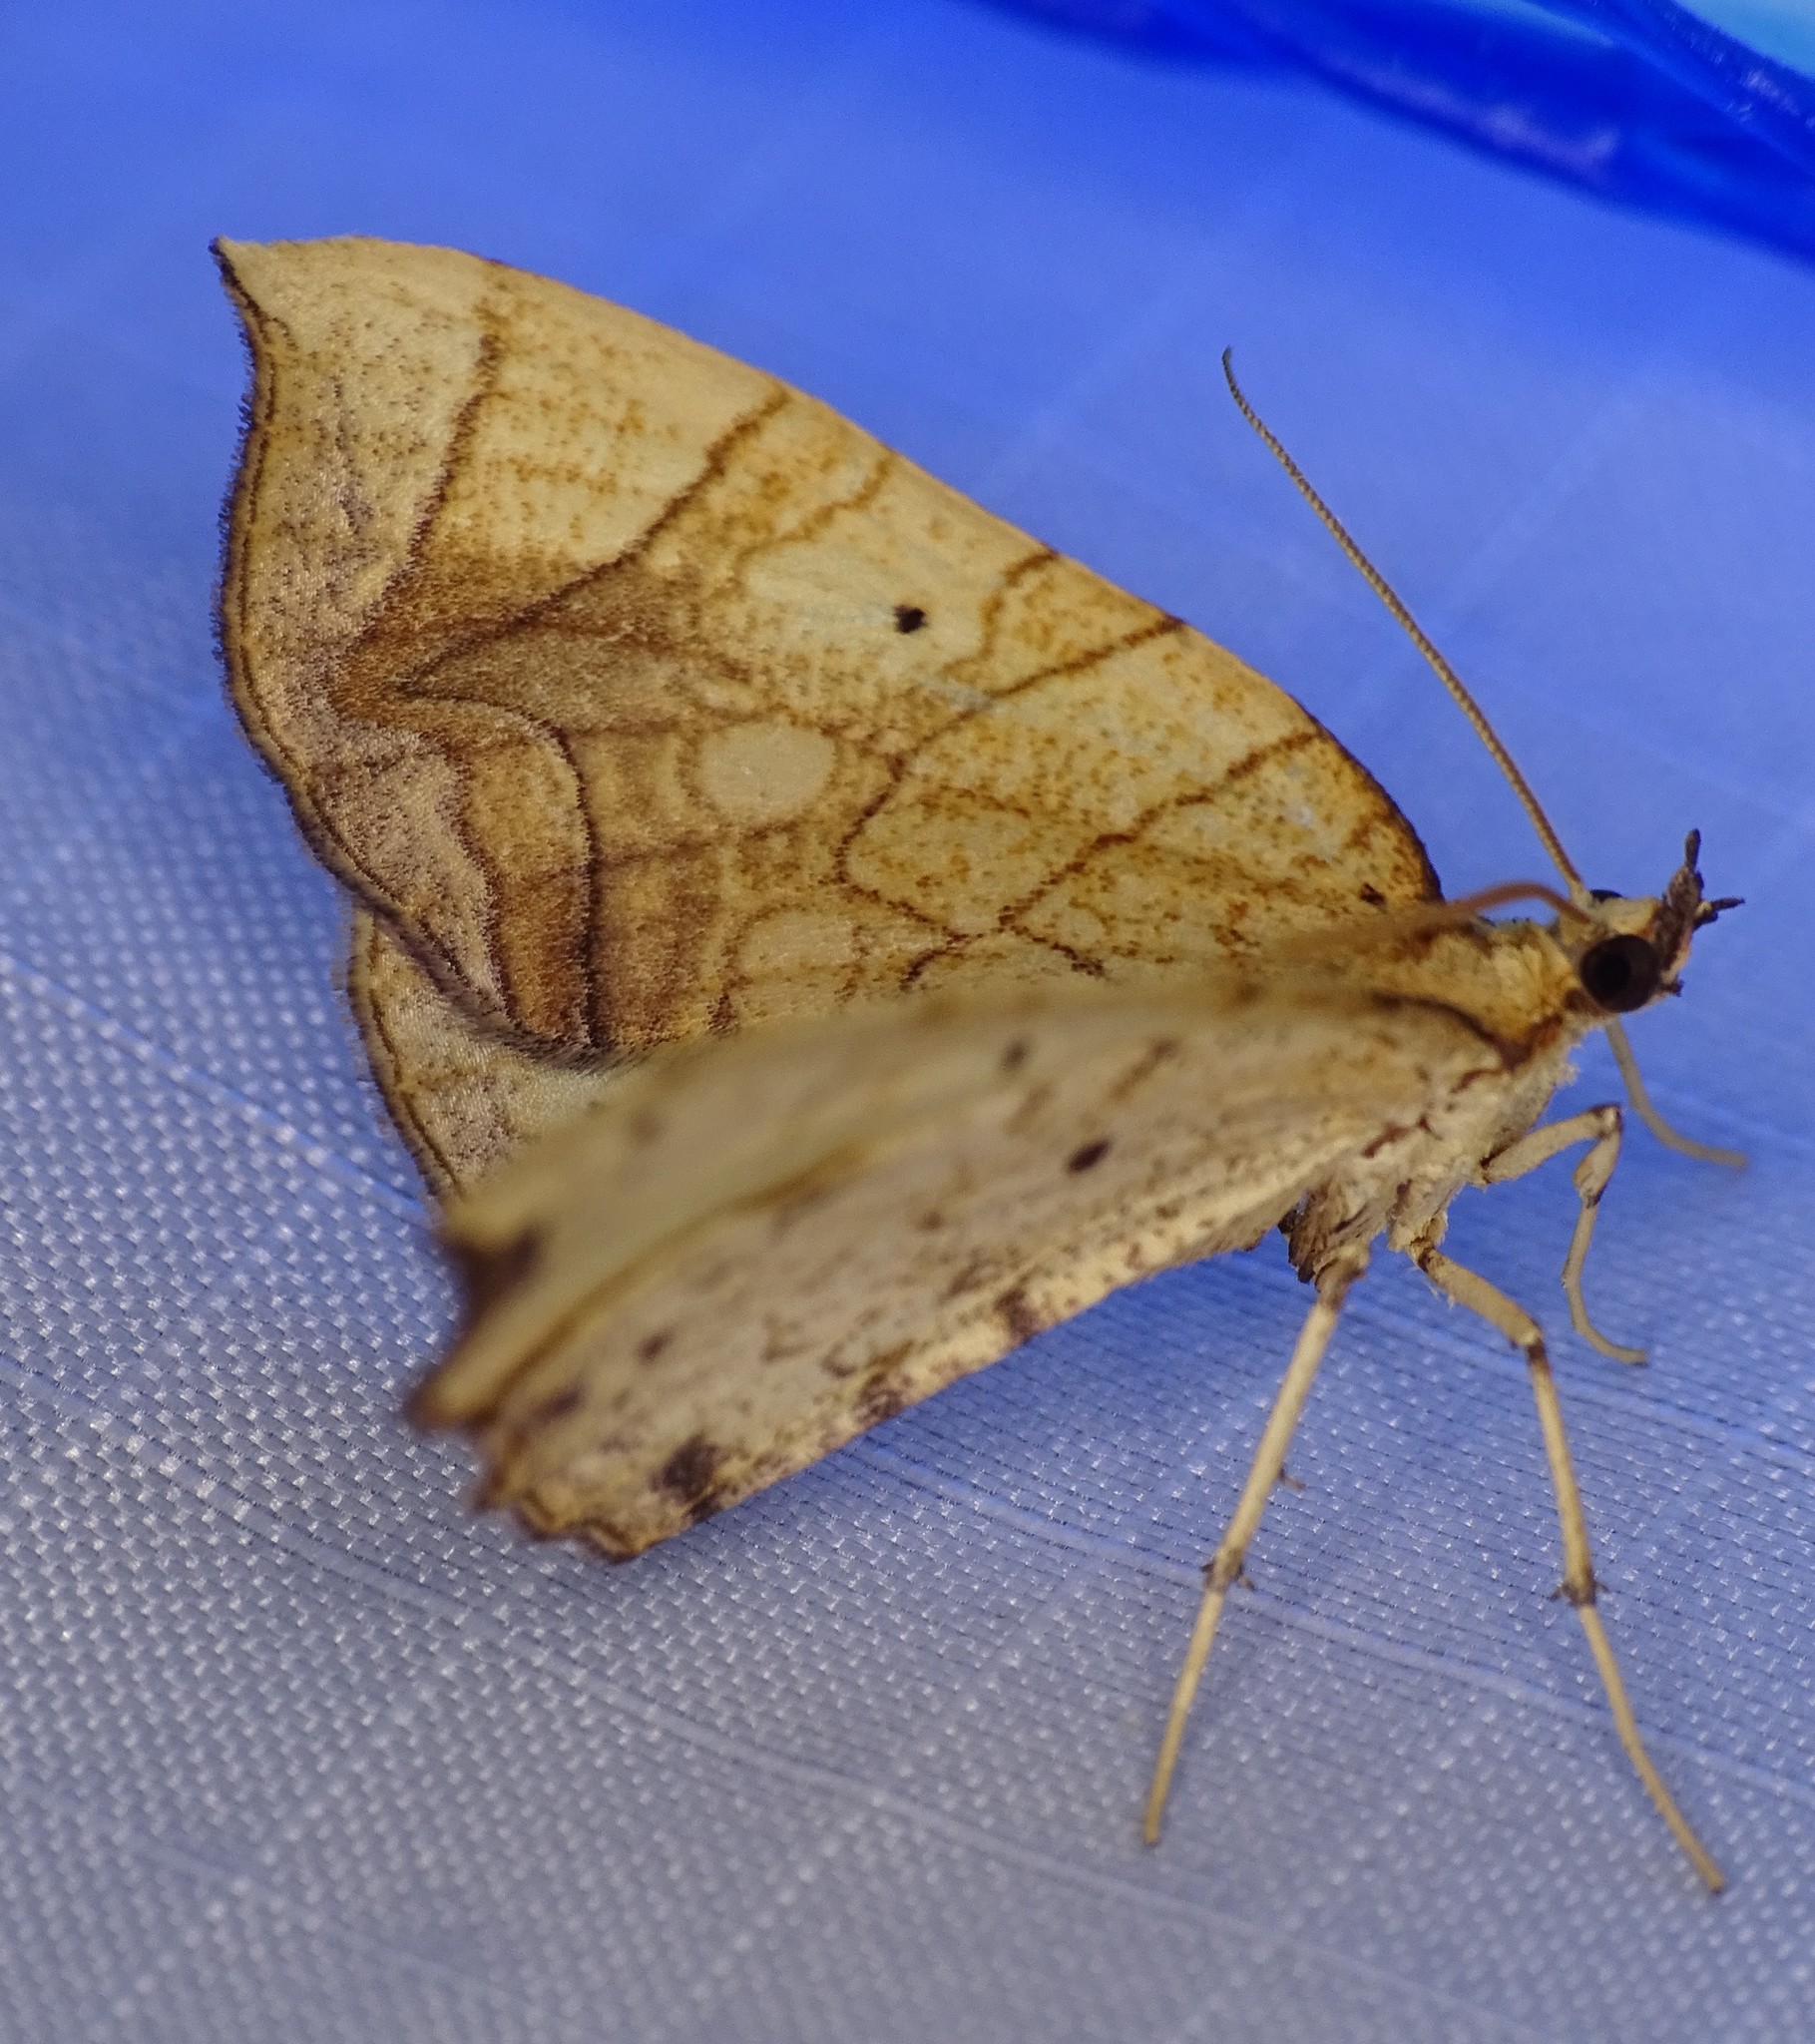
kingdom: Animalia
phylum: Arthropoda
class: Insecta
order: Lepidoptera
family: Geometridae
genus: Eulithis
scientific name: Eulithis
